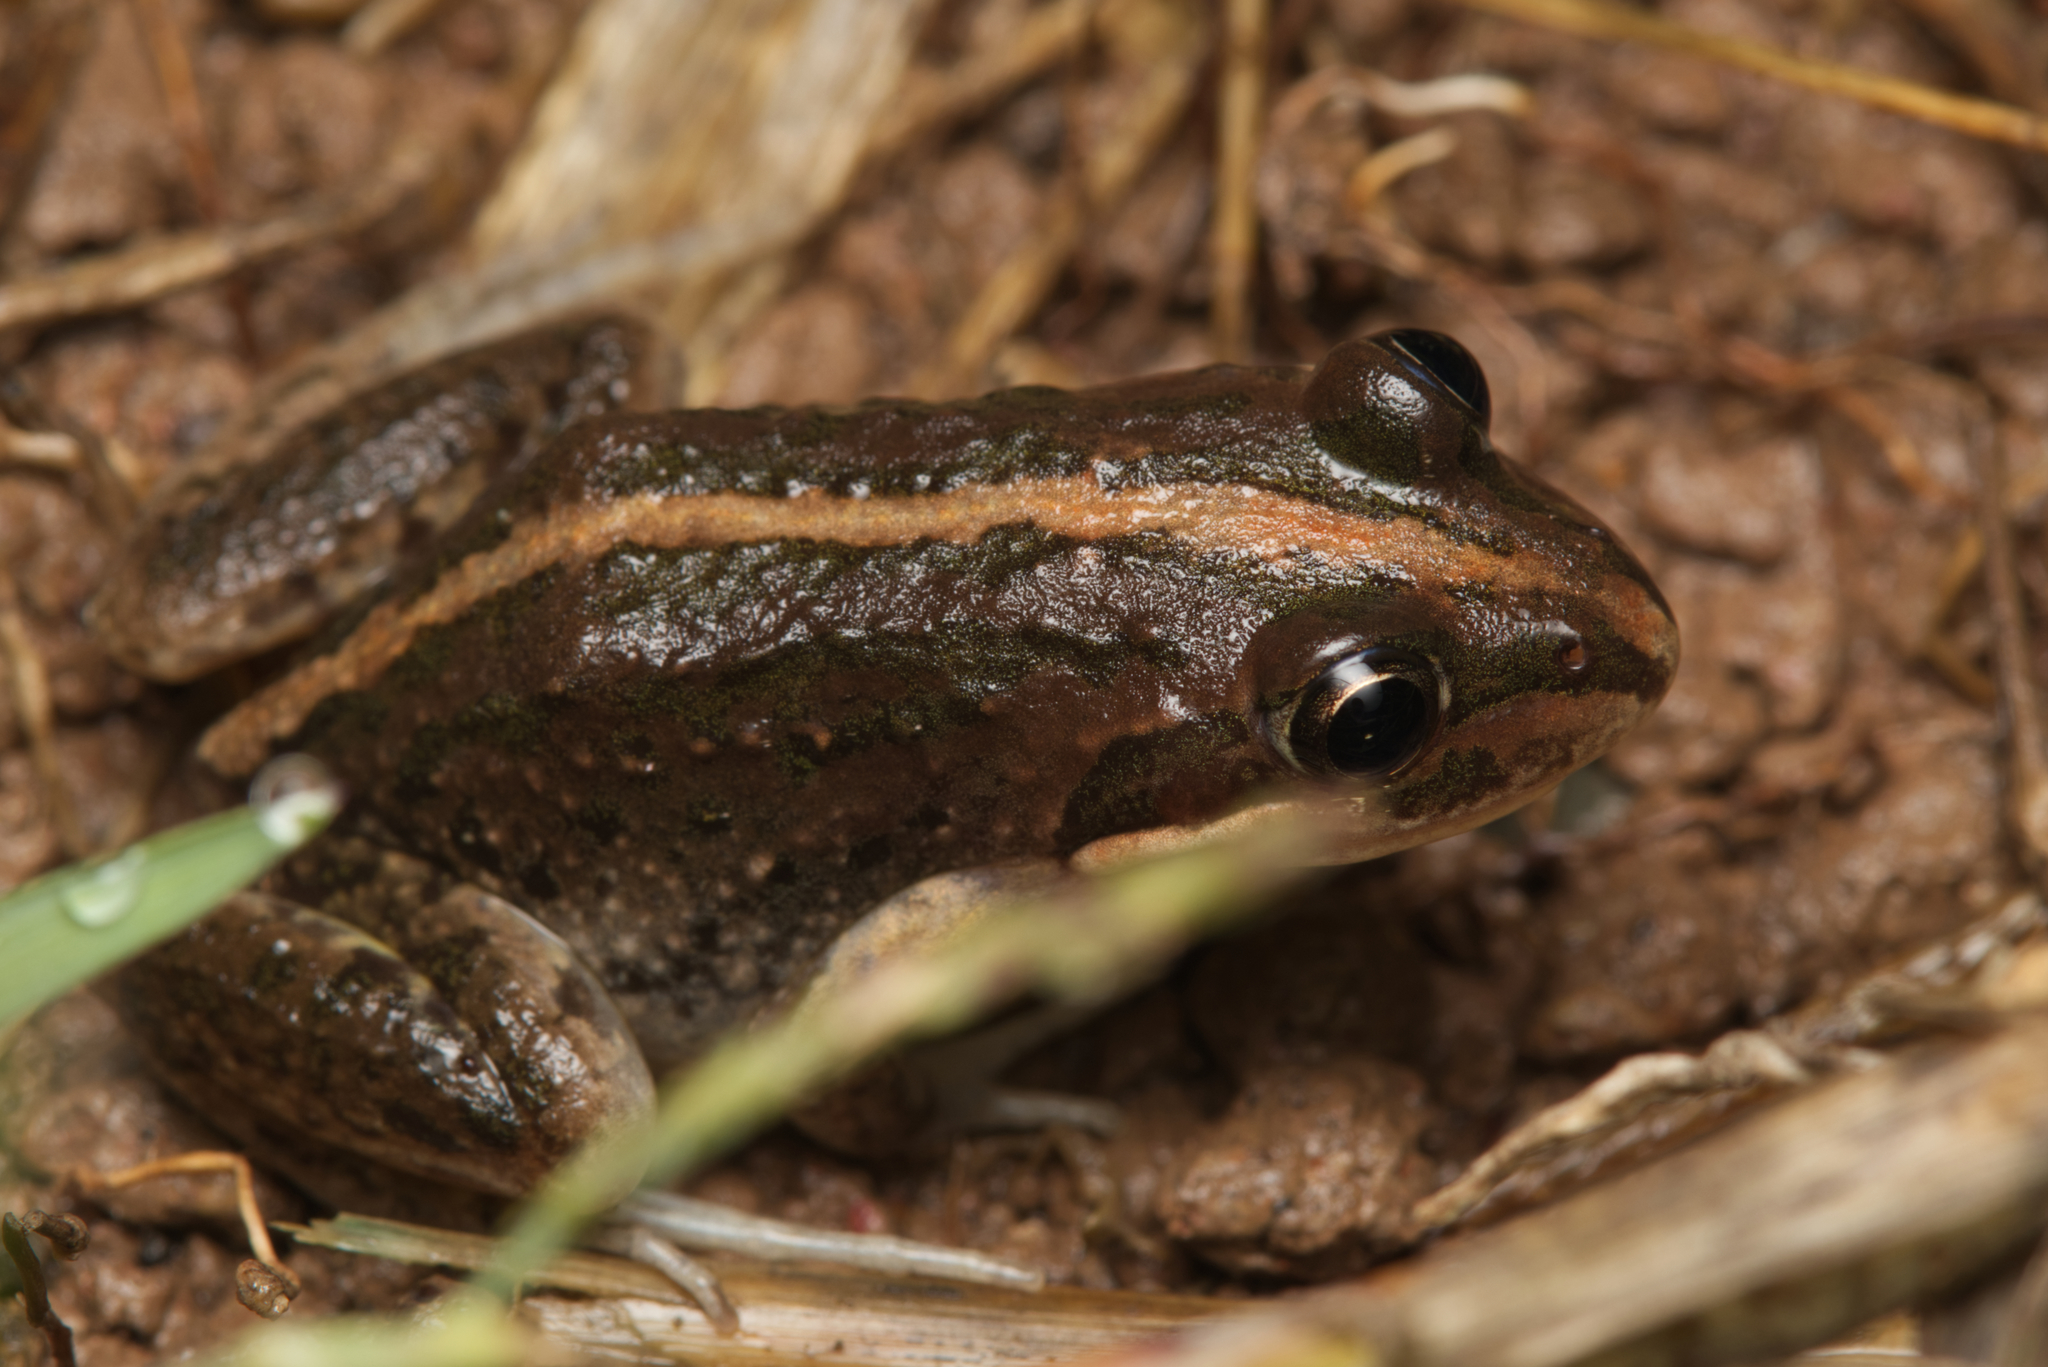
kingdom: Animalia
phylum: Chordata
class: Amphibia
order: Anura
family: Limnodynastidae
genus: Limnodynastes
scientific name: Limnodynastes tasmaniensis
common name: Spotted marsh frog
